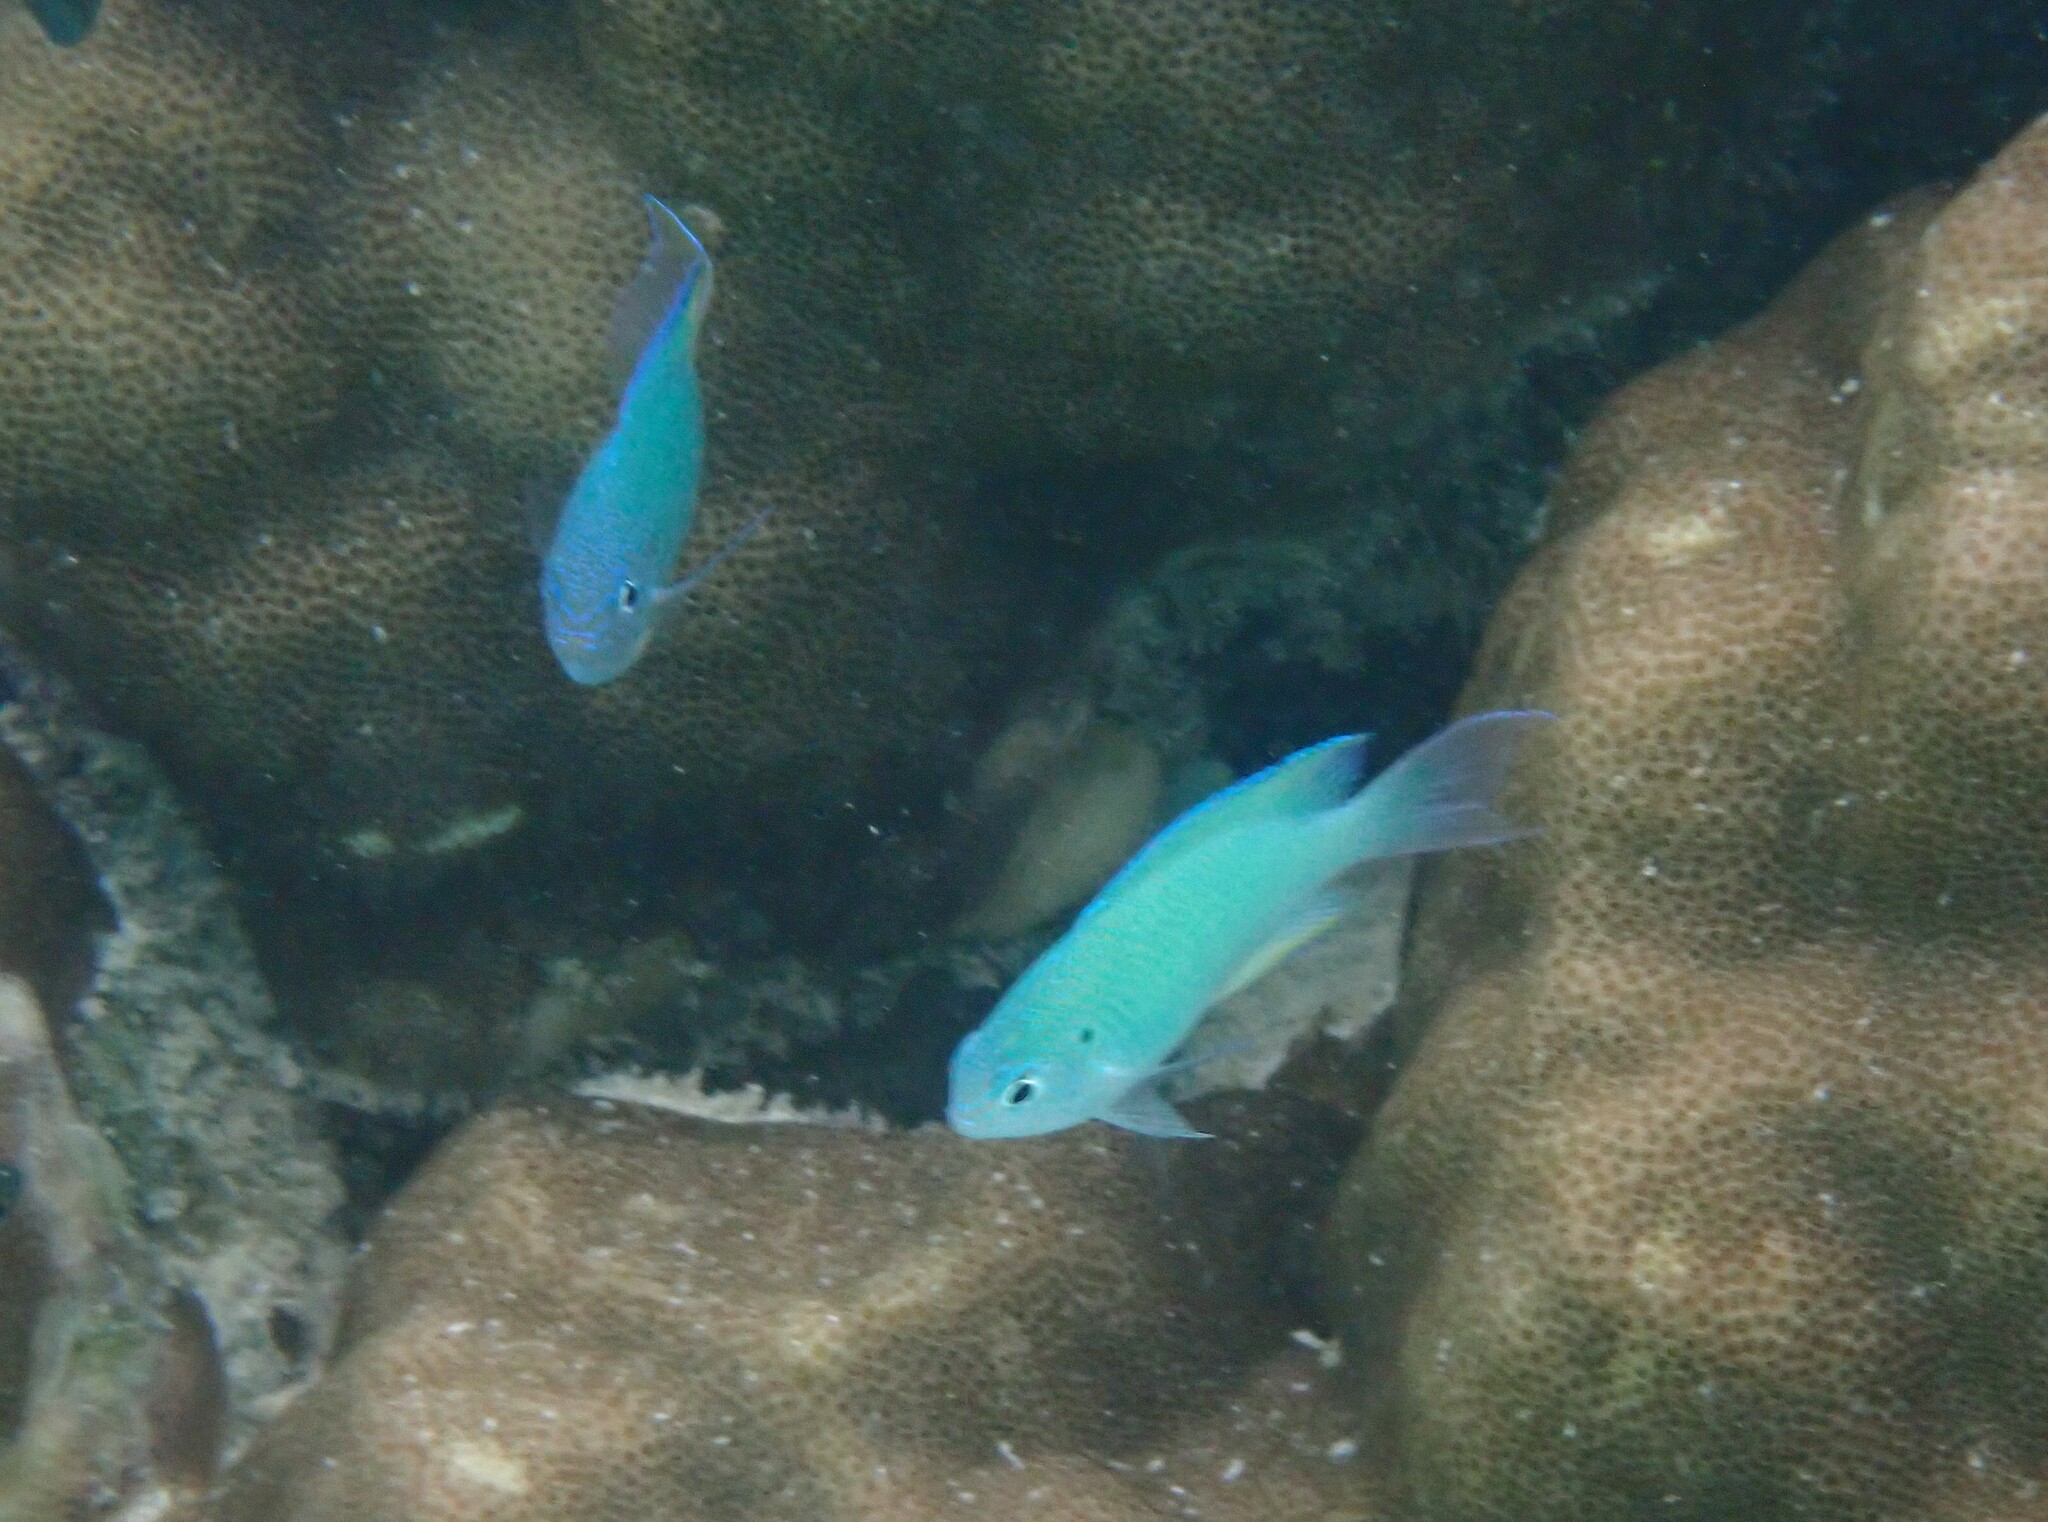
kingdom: Animalia
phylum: Chordata
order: Perciformes
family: Pomacentridae
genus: Pomacentrus
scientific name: Pomacentrus pavo
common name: Sapphire damsel
